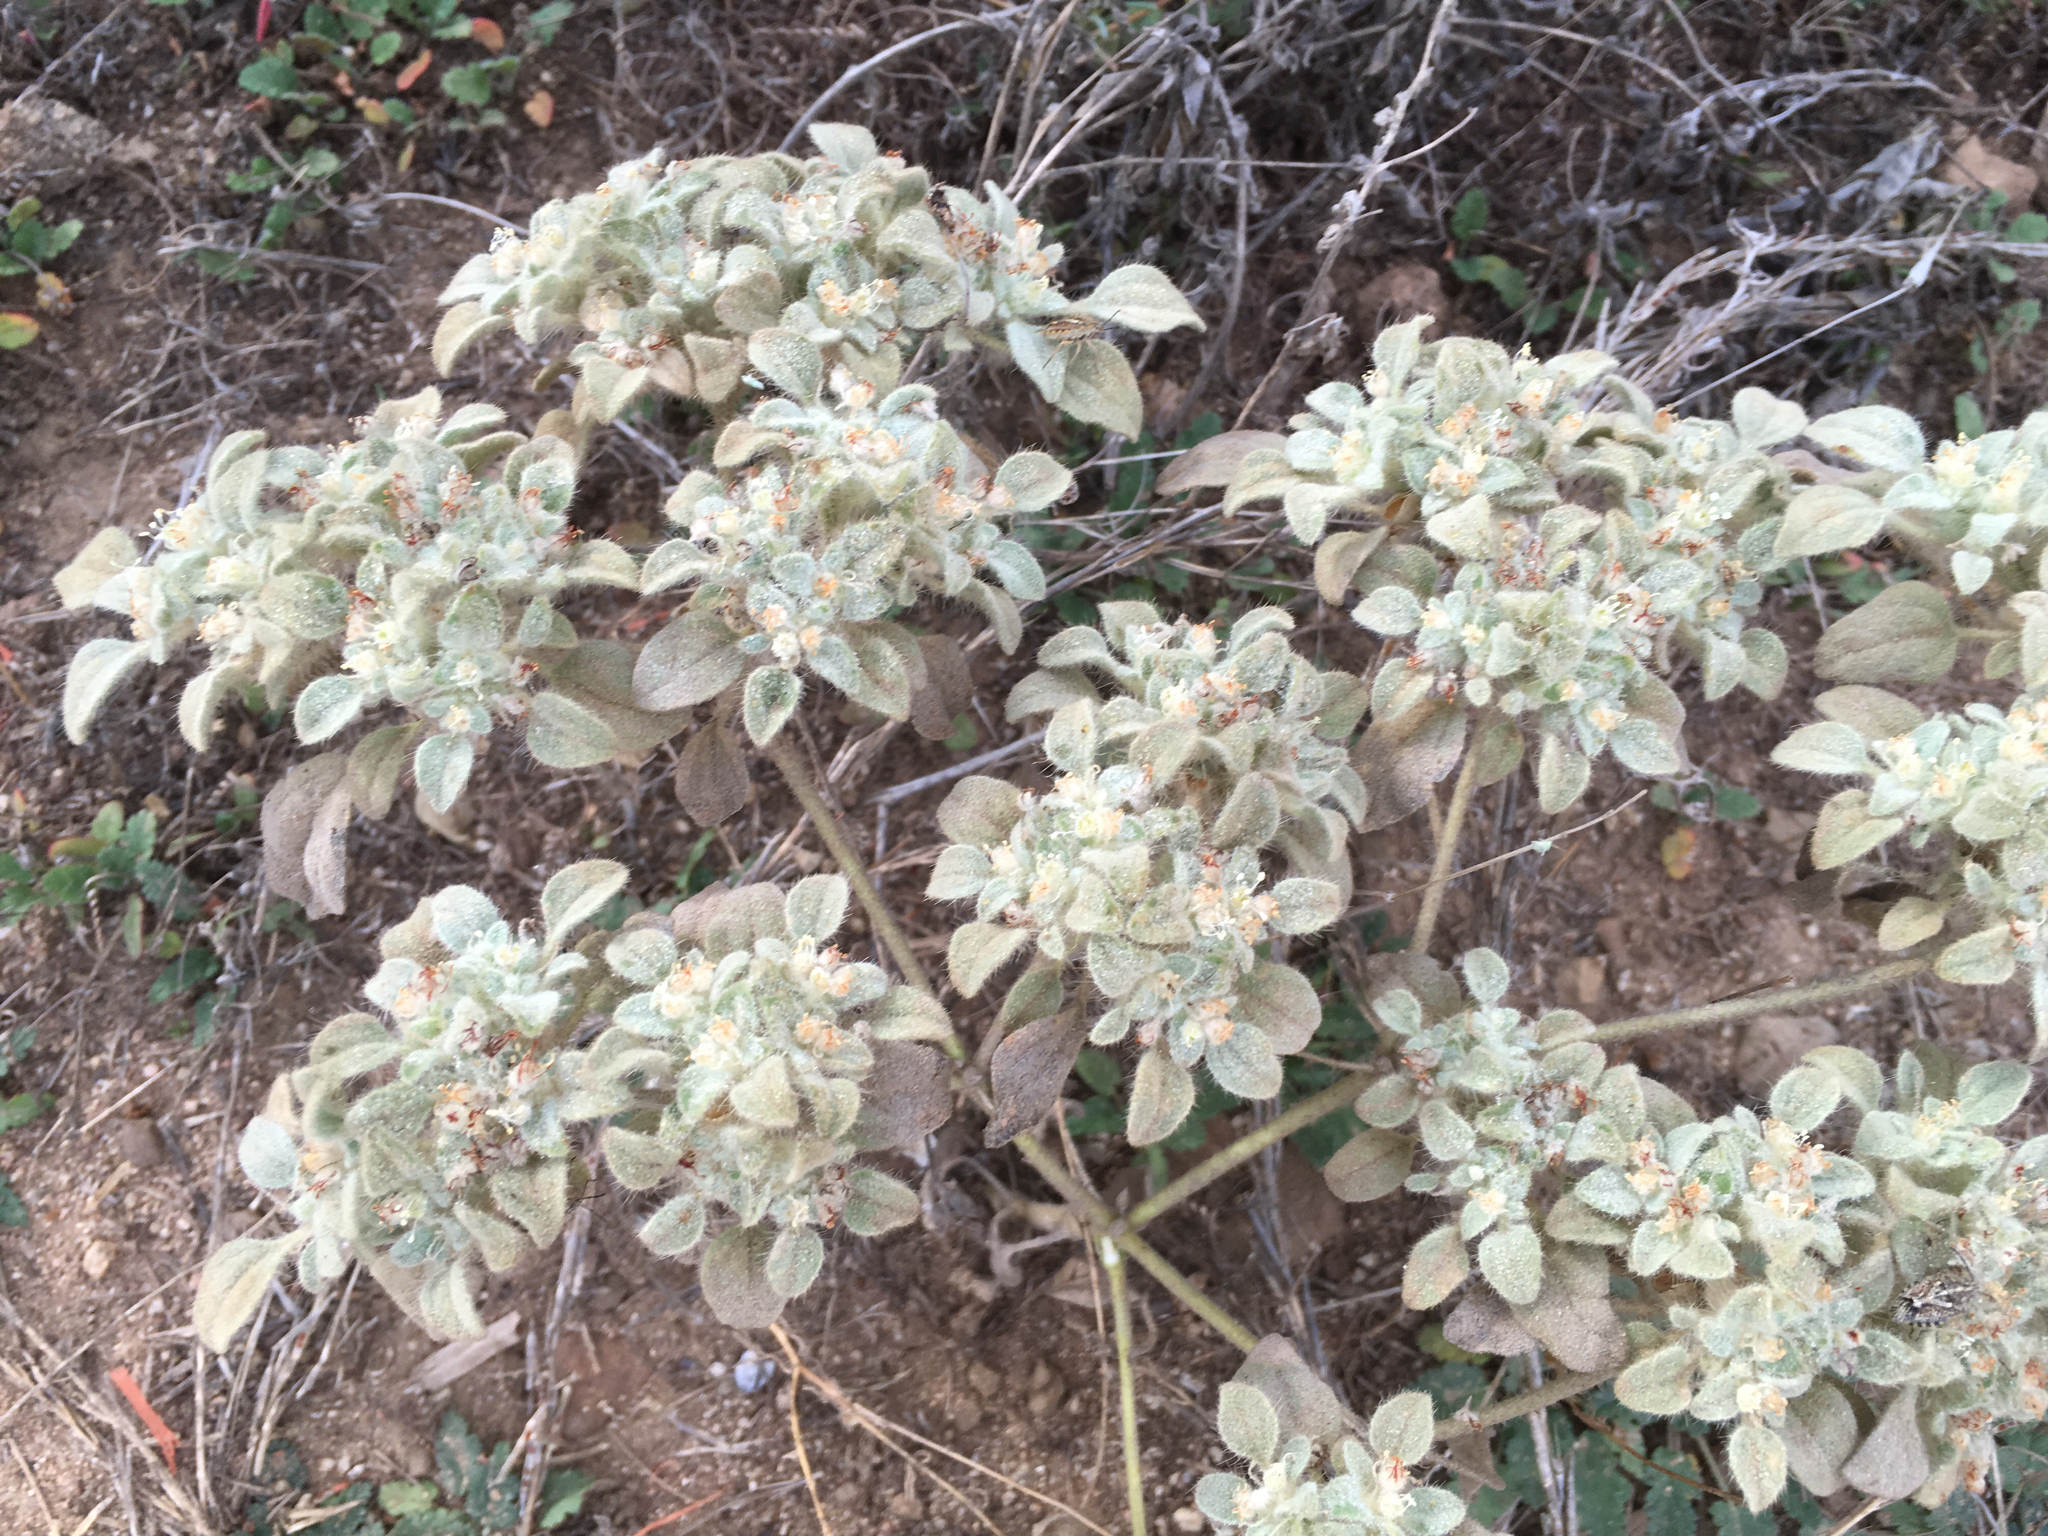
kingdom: Plantae
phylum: Tracheophyta
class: Magnoliopsida
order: Malpighiales
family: Euphorbiaceae
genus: Croton
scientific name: Croton setiger
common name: Dove weed
